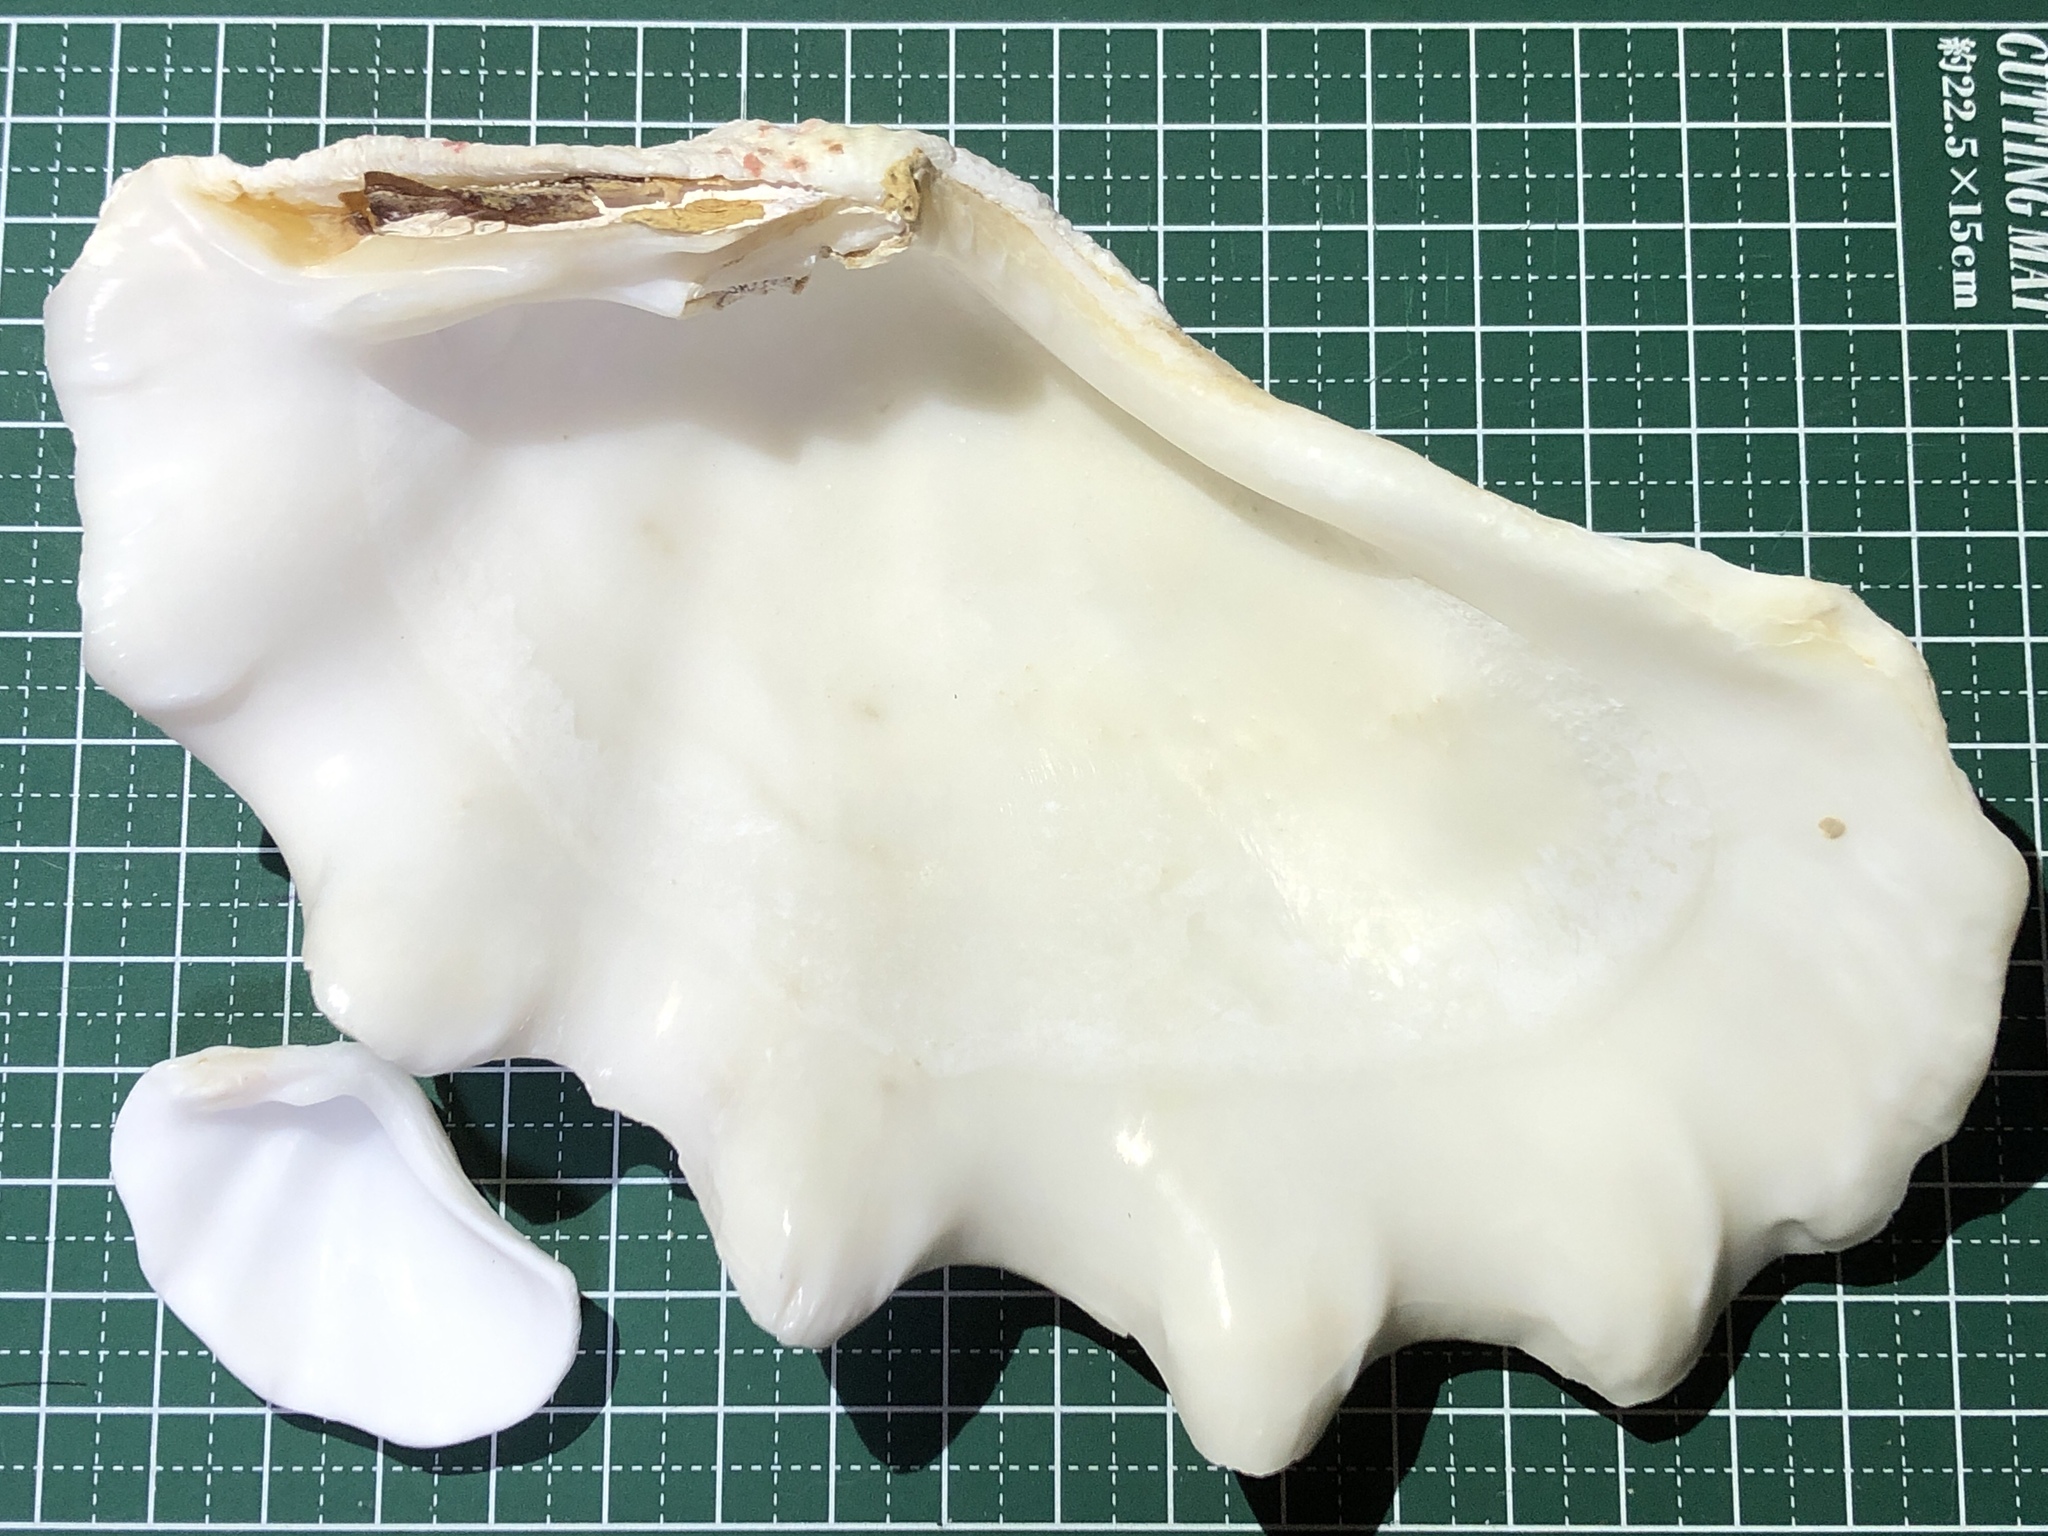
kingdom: Animalia
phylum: Mollusca
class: Bivalvia
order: Cardiida
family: Cardiidae
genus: Tridacna
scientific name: Tridacna maxima
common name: Small giant clam
